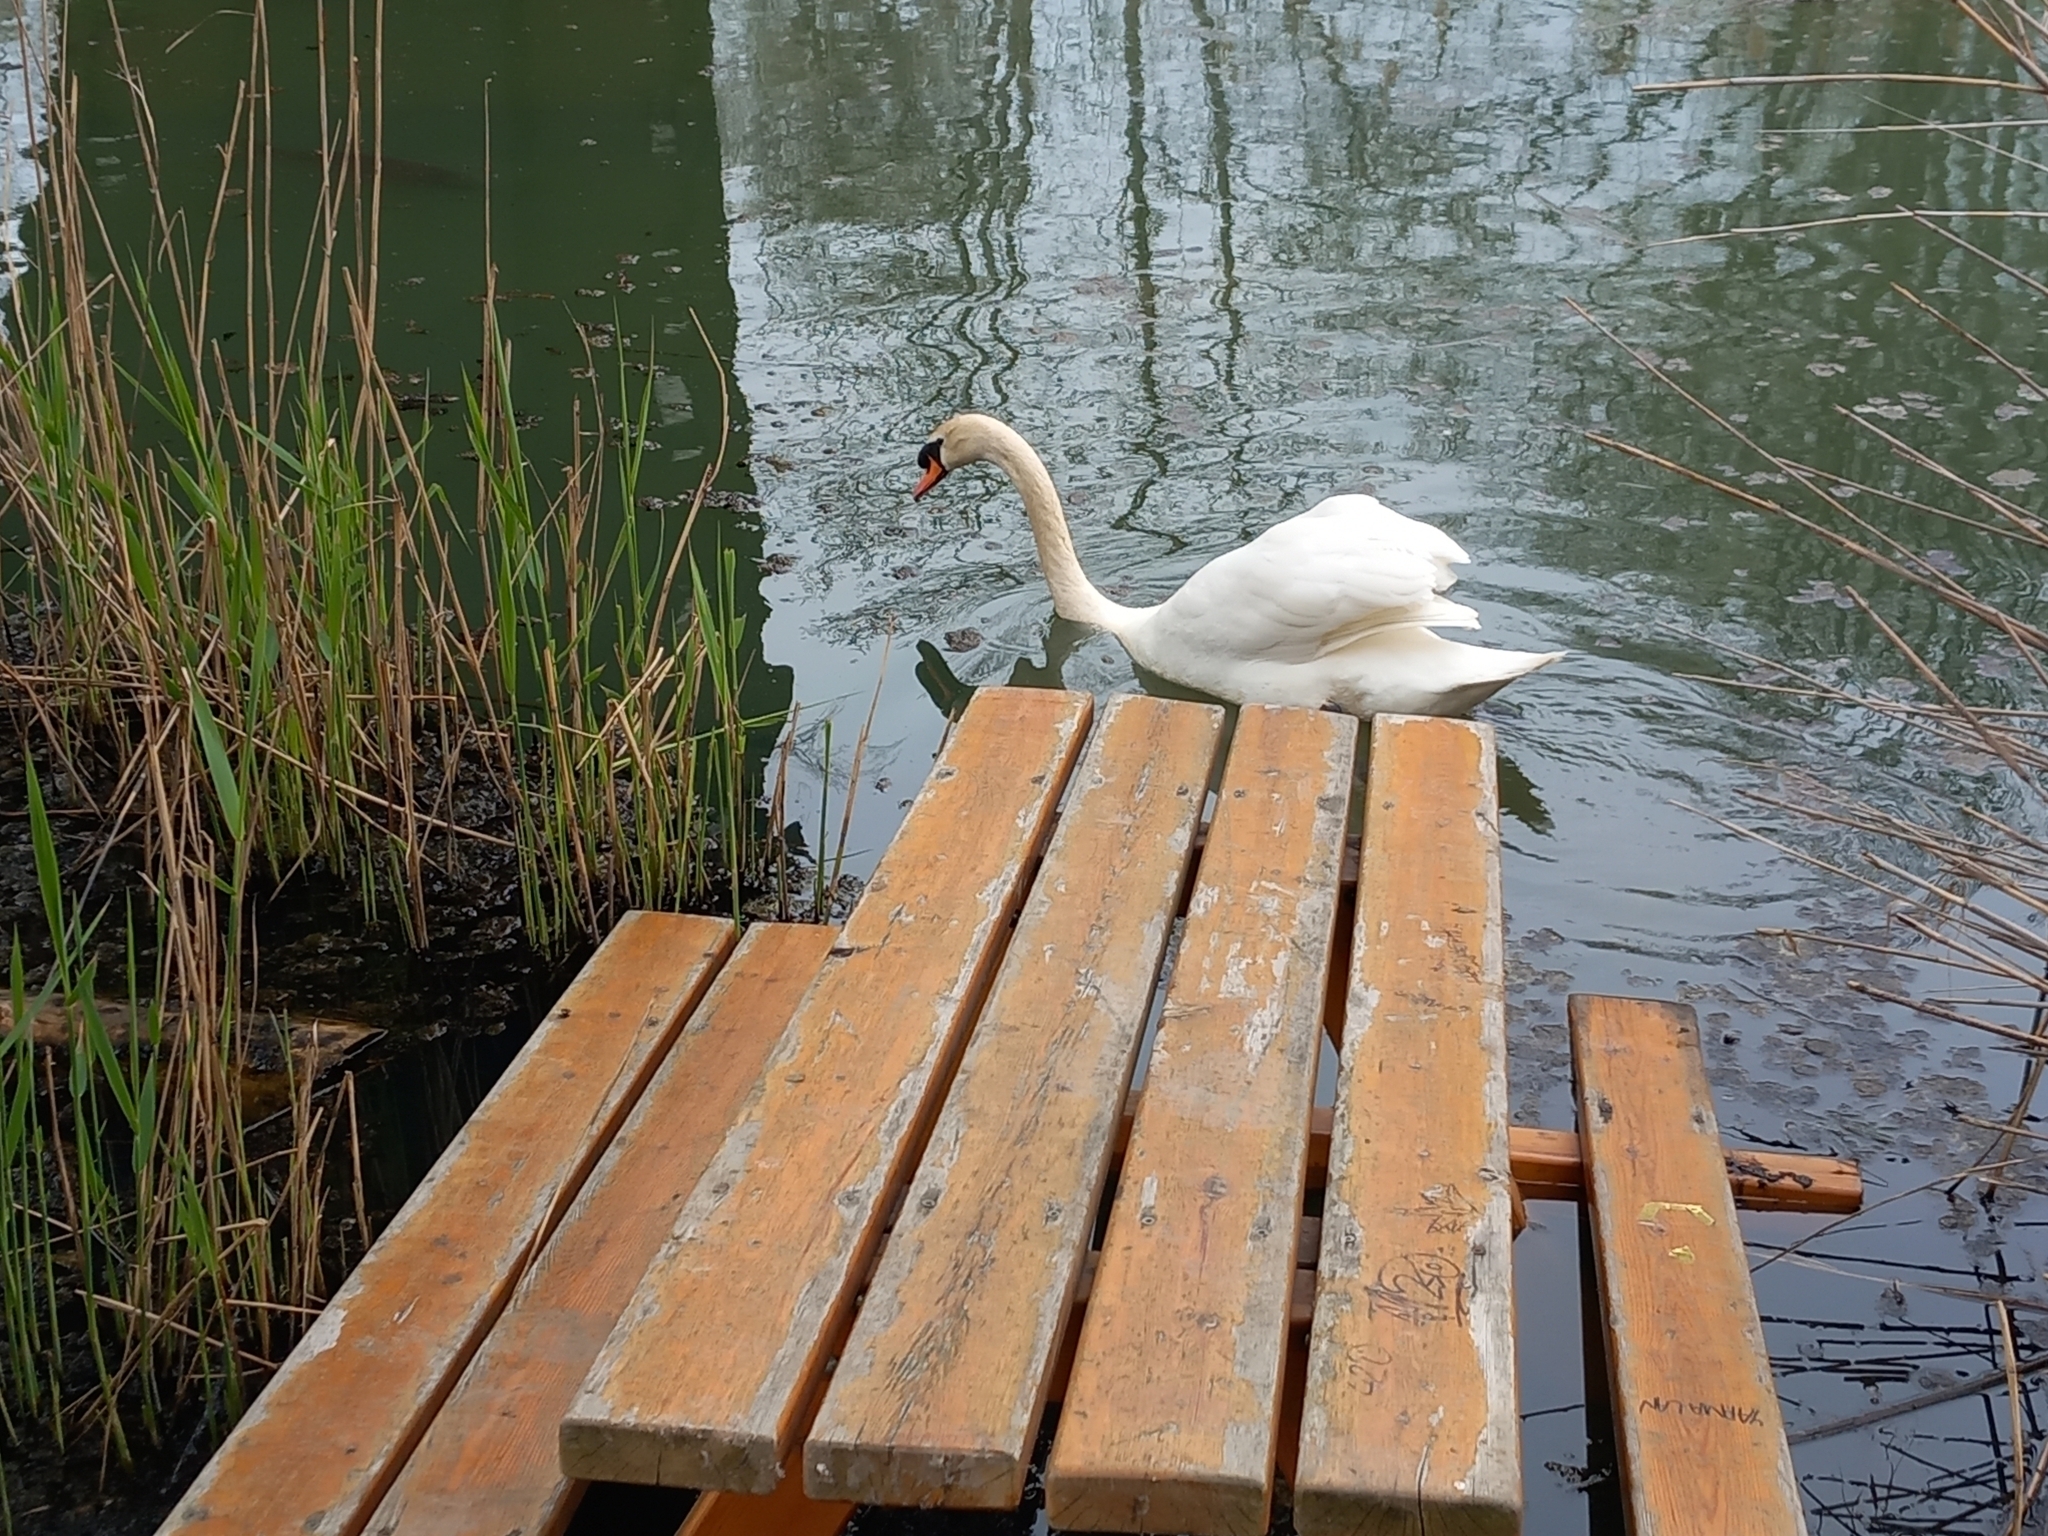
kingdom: Animalia
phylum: Chordata
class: Aves
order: Anseriformes
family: Anatidae
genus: Cygnus
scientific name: Cygnus olor
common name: Mute swan
